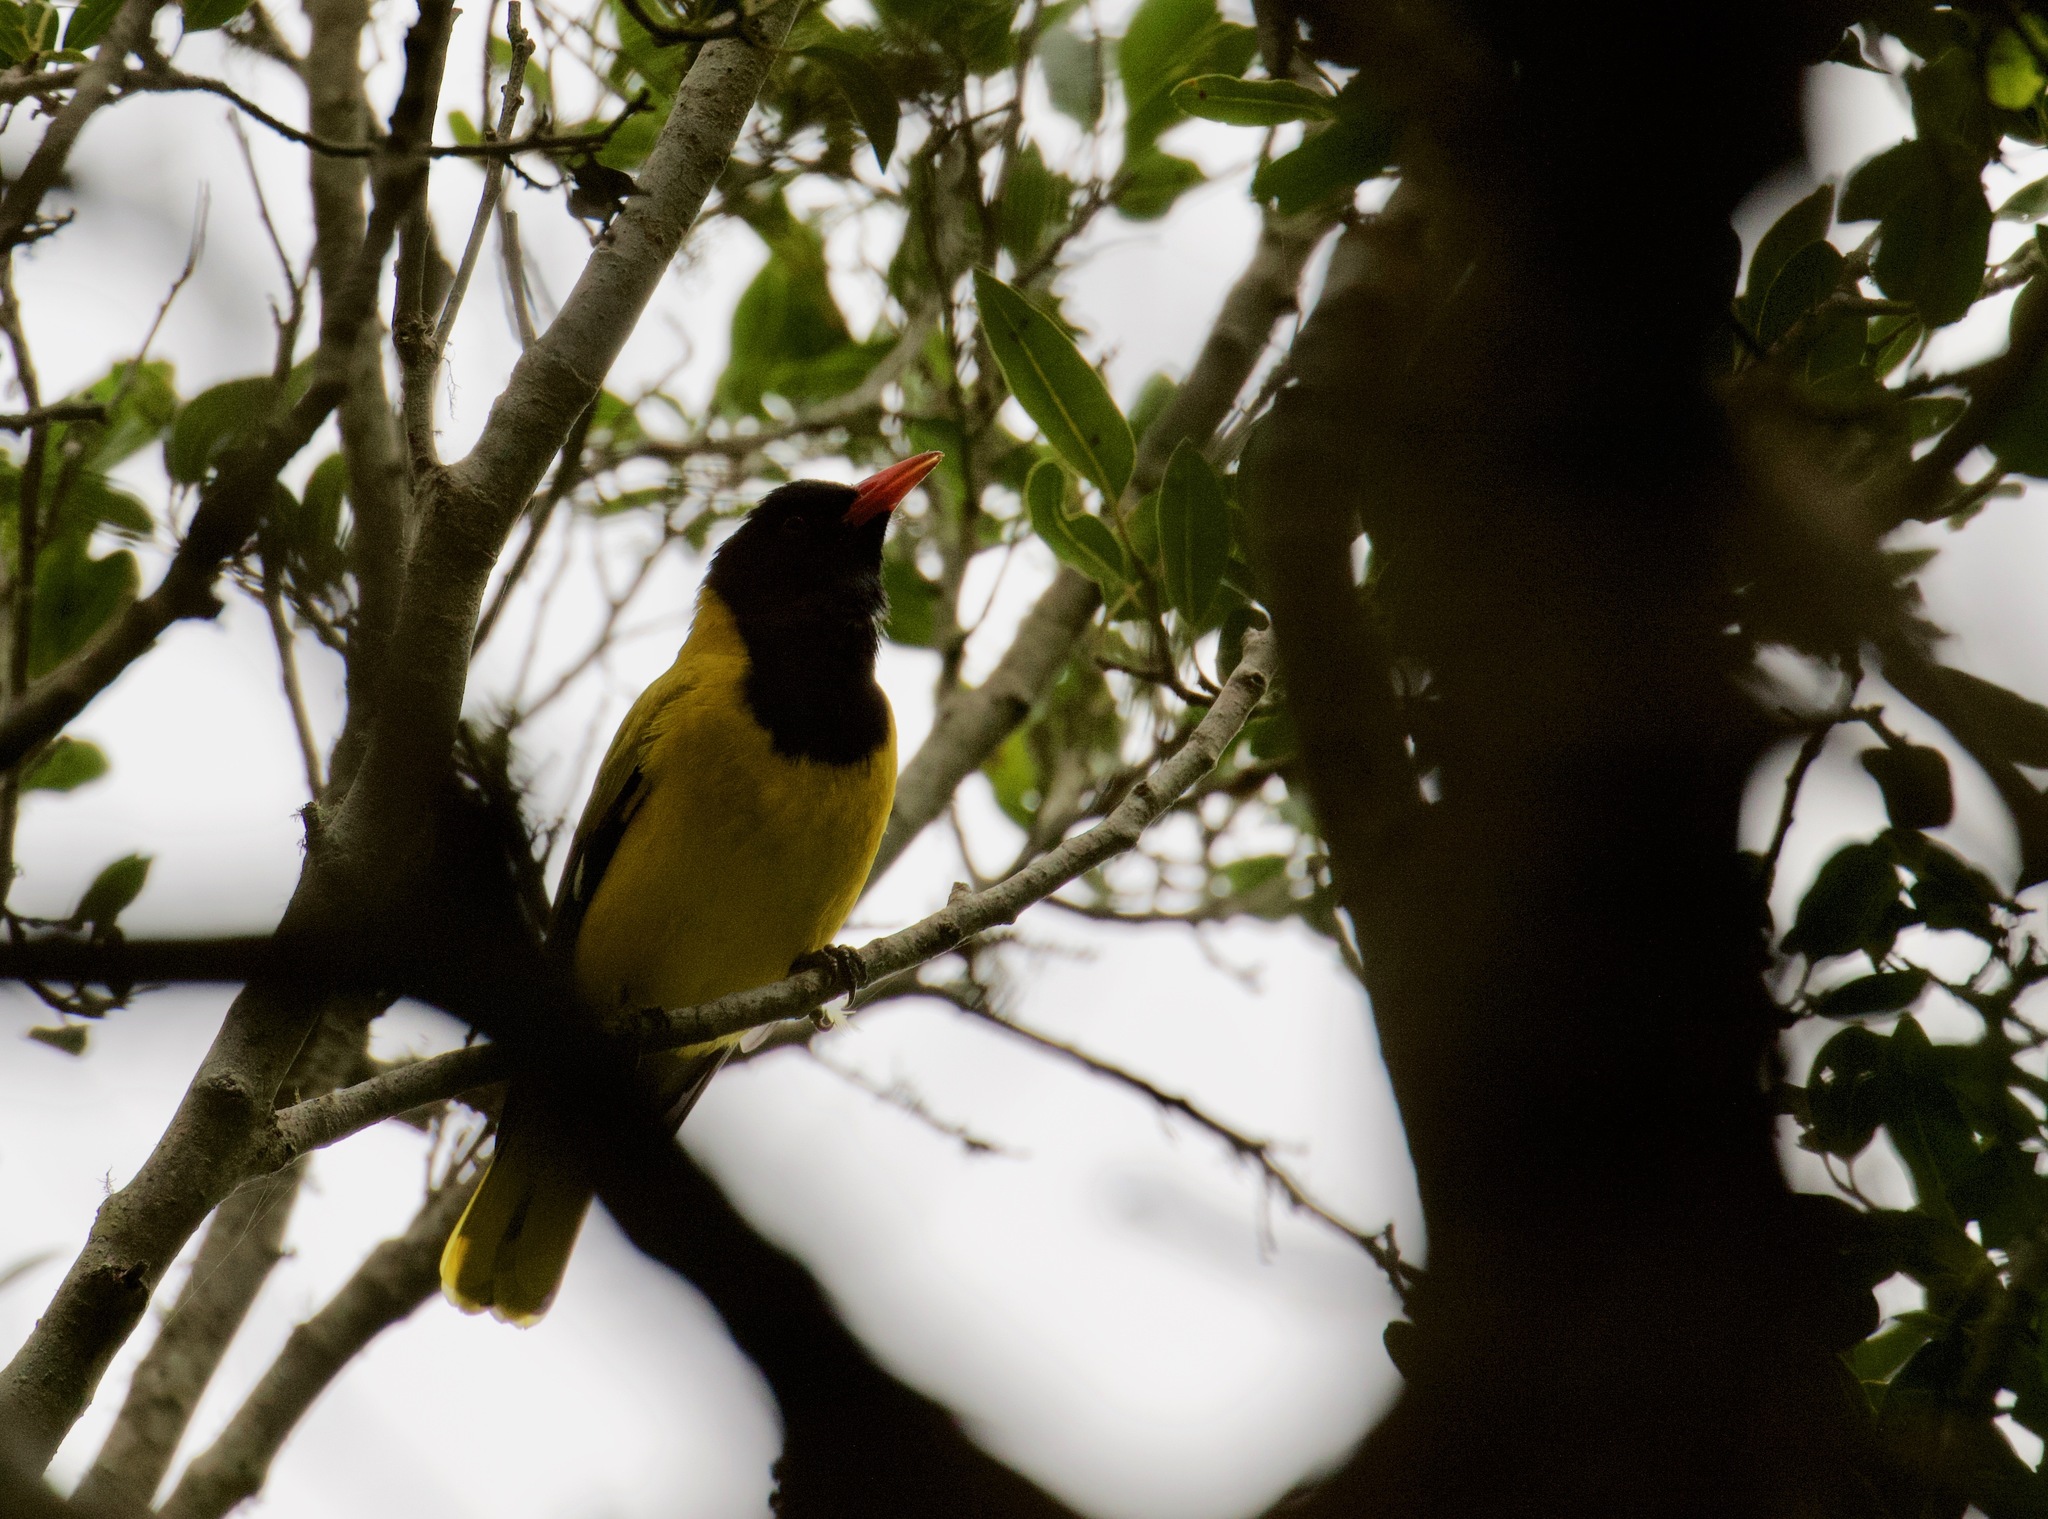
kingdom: Animalia
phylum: Chordata
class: Aves
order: Passeriformes
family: Oriolidae
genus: Oriolus
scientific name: Oriolus larvatus
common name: Black-headed oriole
